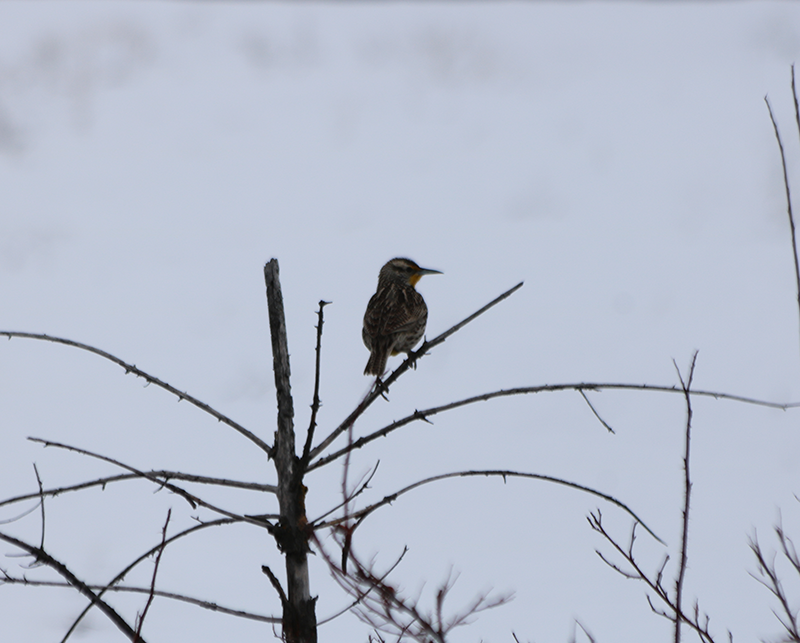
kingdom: Animalia
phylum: Chordata
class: Aves
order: Passeriformes
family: Icteridae
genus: Sturnella
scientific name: Sturnella neglecta
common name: Western meadowlark
